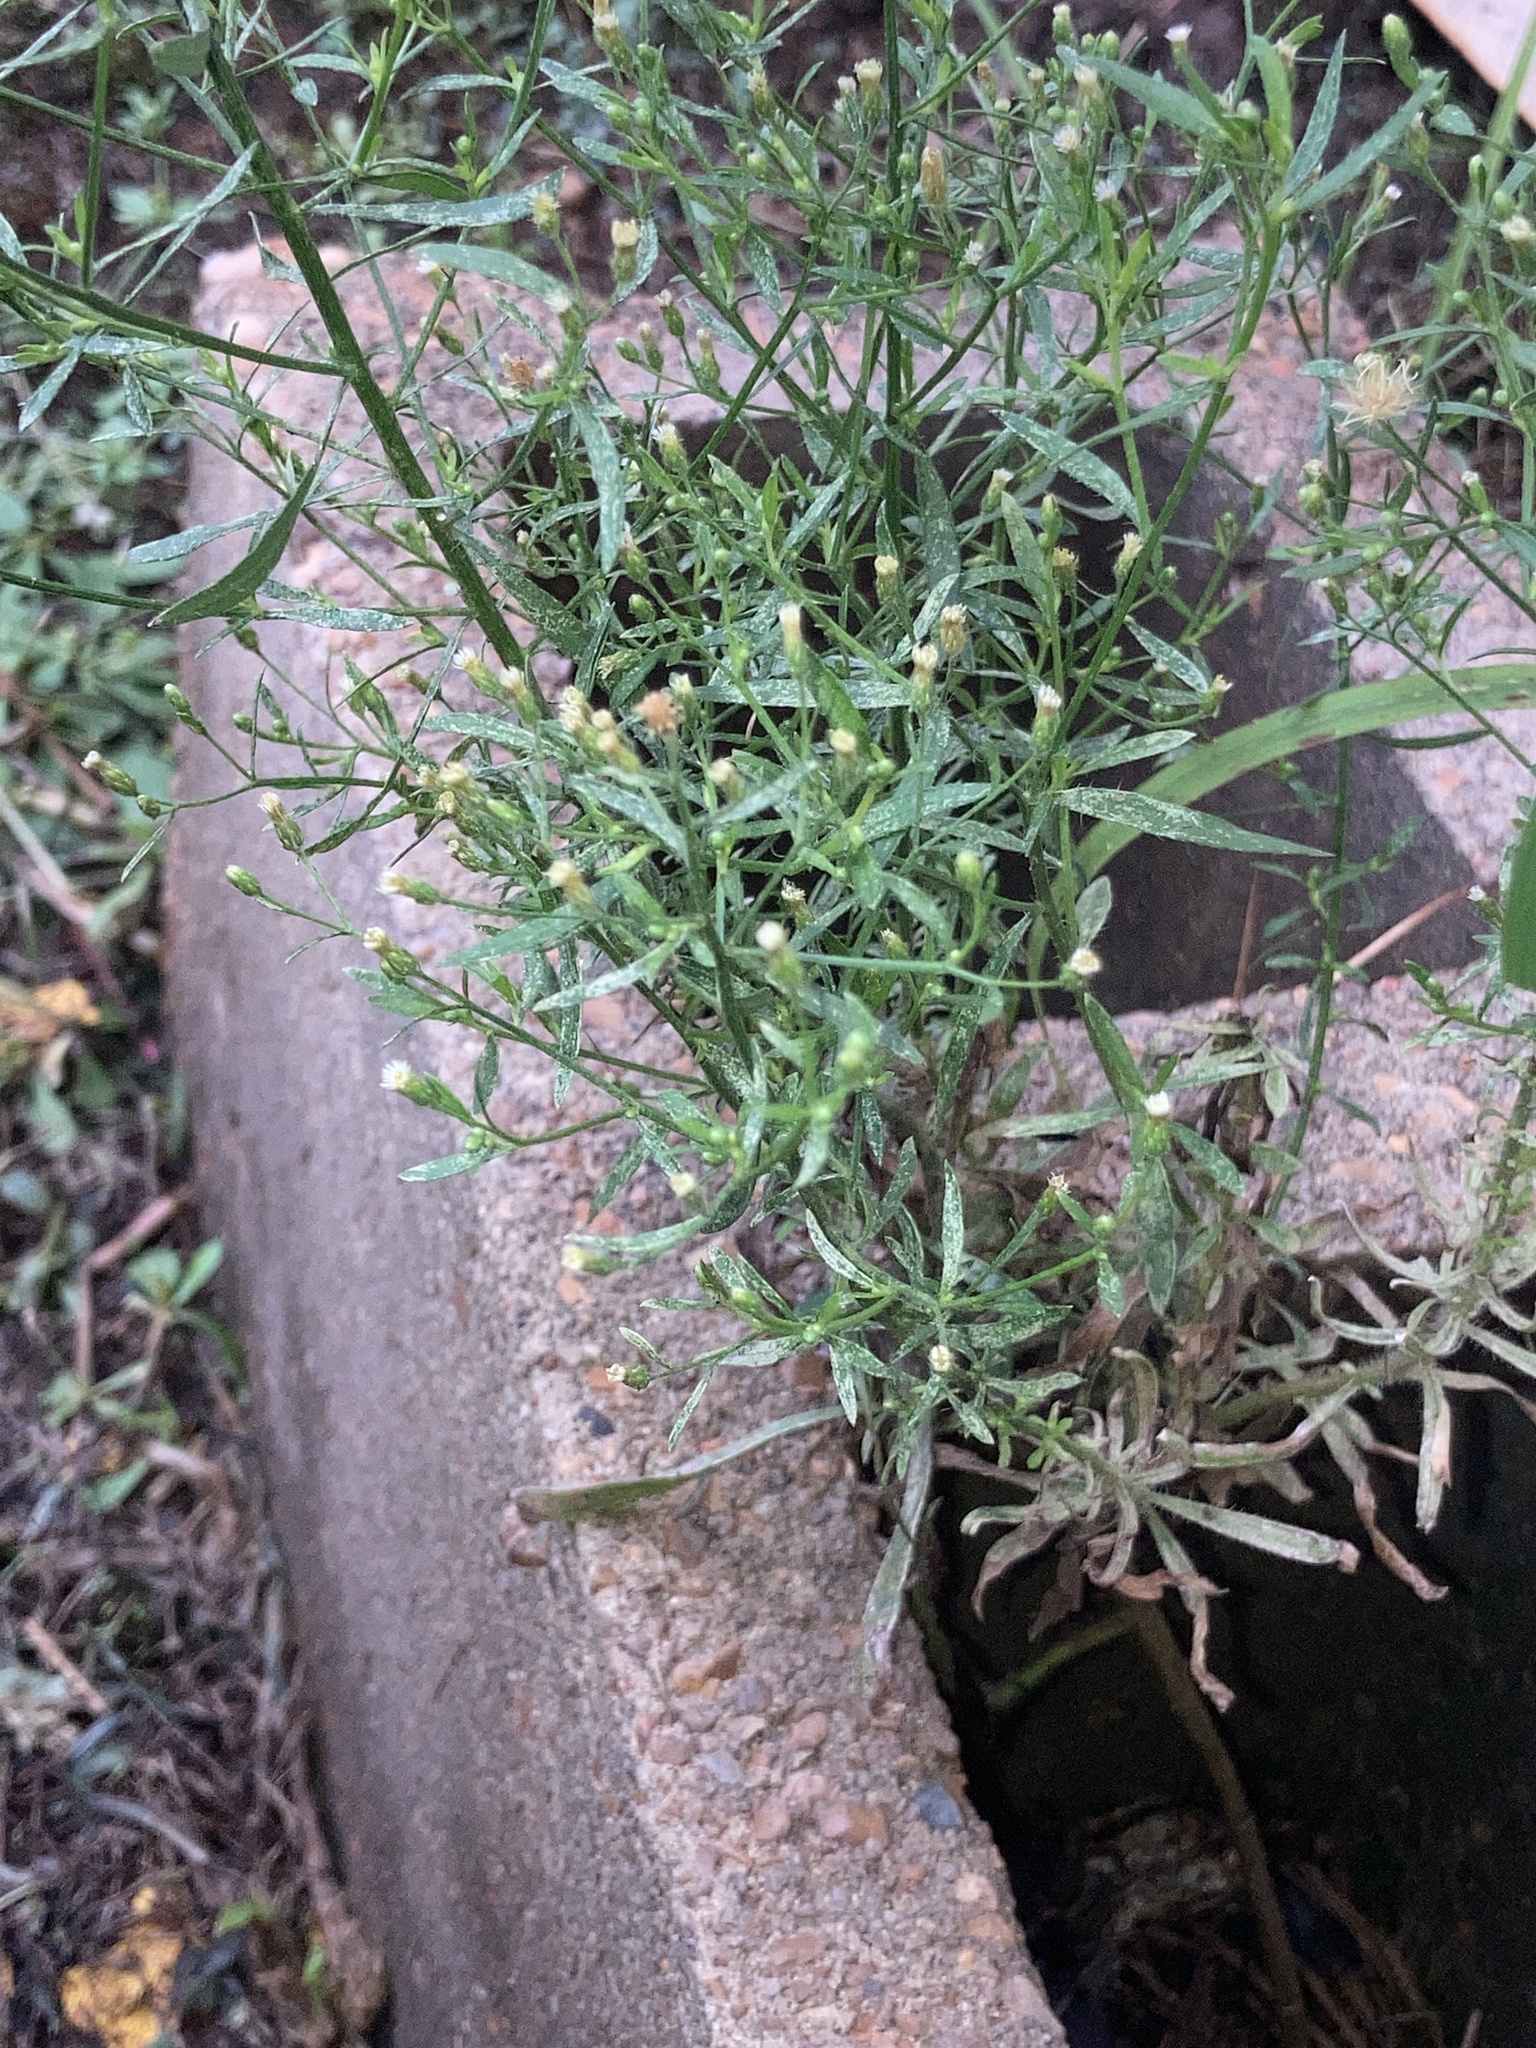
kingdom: Plantae
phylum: Tracheophyta
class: Magnoliopsida
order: Asterales
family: Asteraceae
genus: Erigeron
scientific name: Erigeron canadensis
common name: Canadian fleabane
